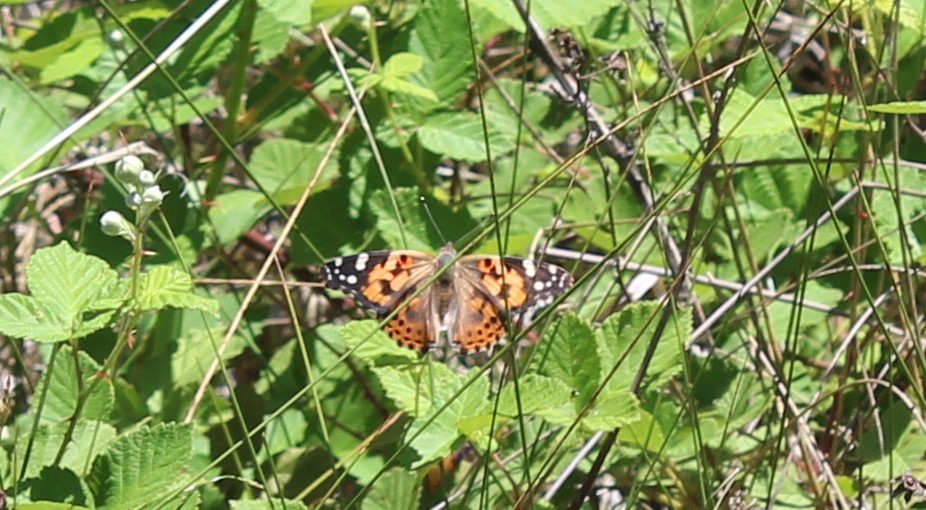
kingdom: Animalia
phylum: Arthropoda
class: Insecta
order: Lepidoptera
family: Nymphalidae
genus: Vanessa
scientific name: Vanessa cardui
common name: Painted lady
